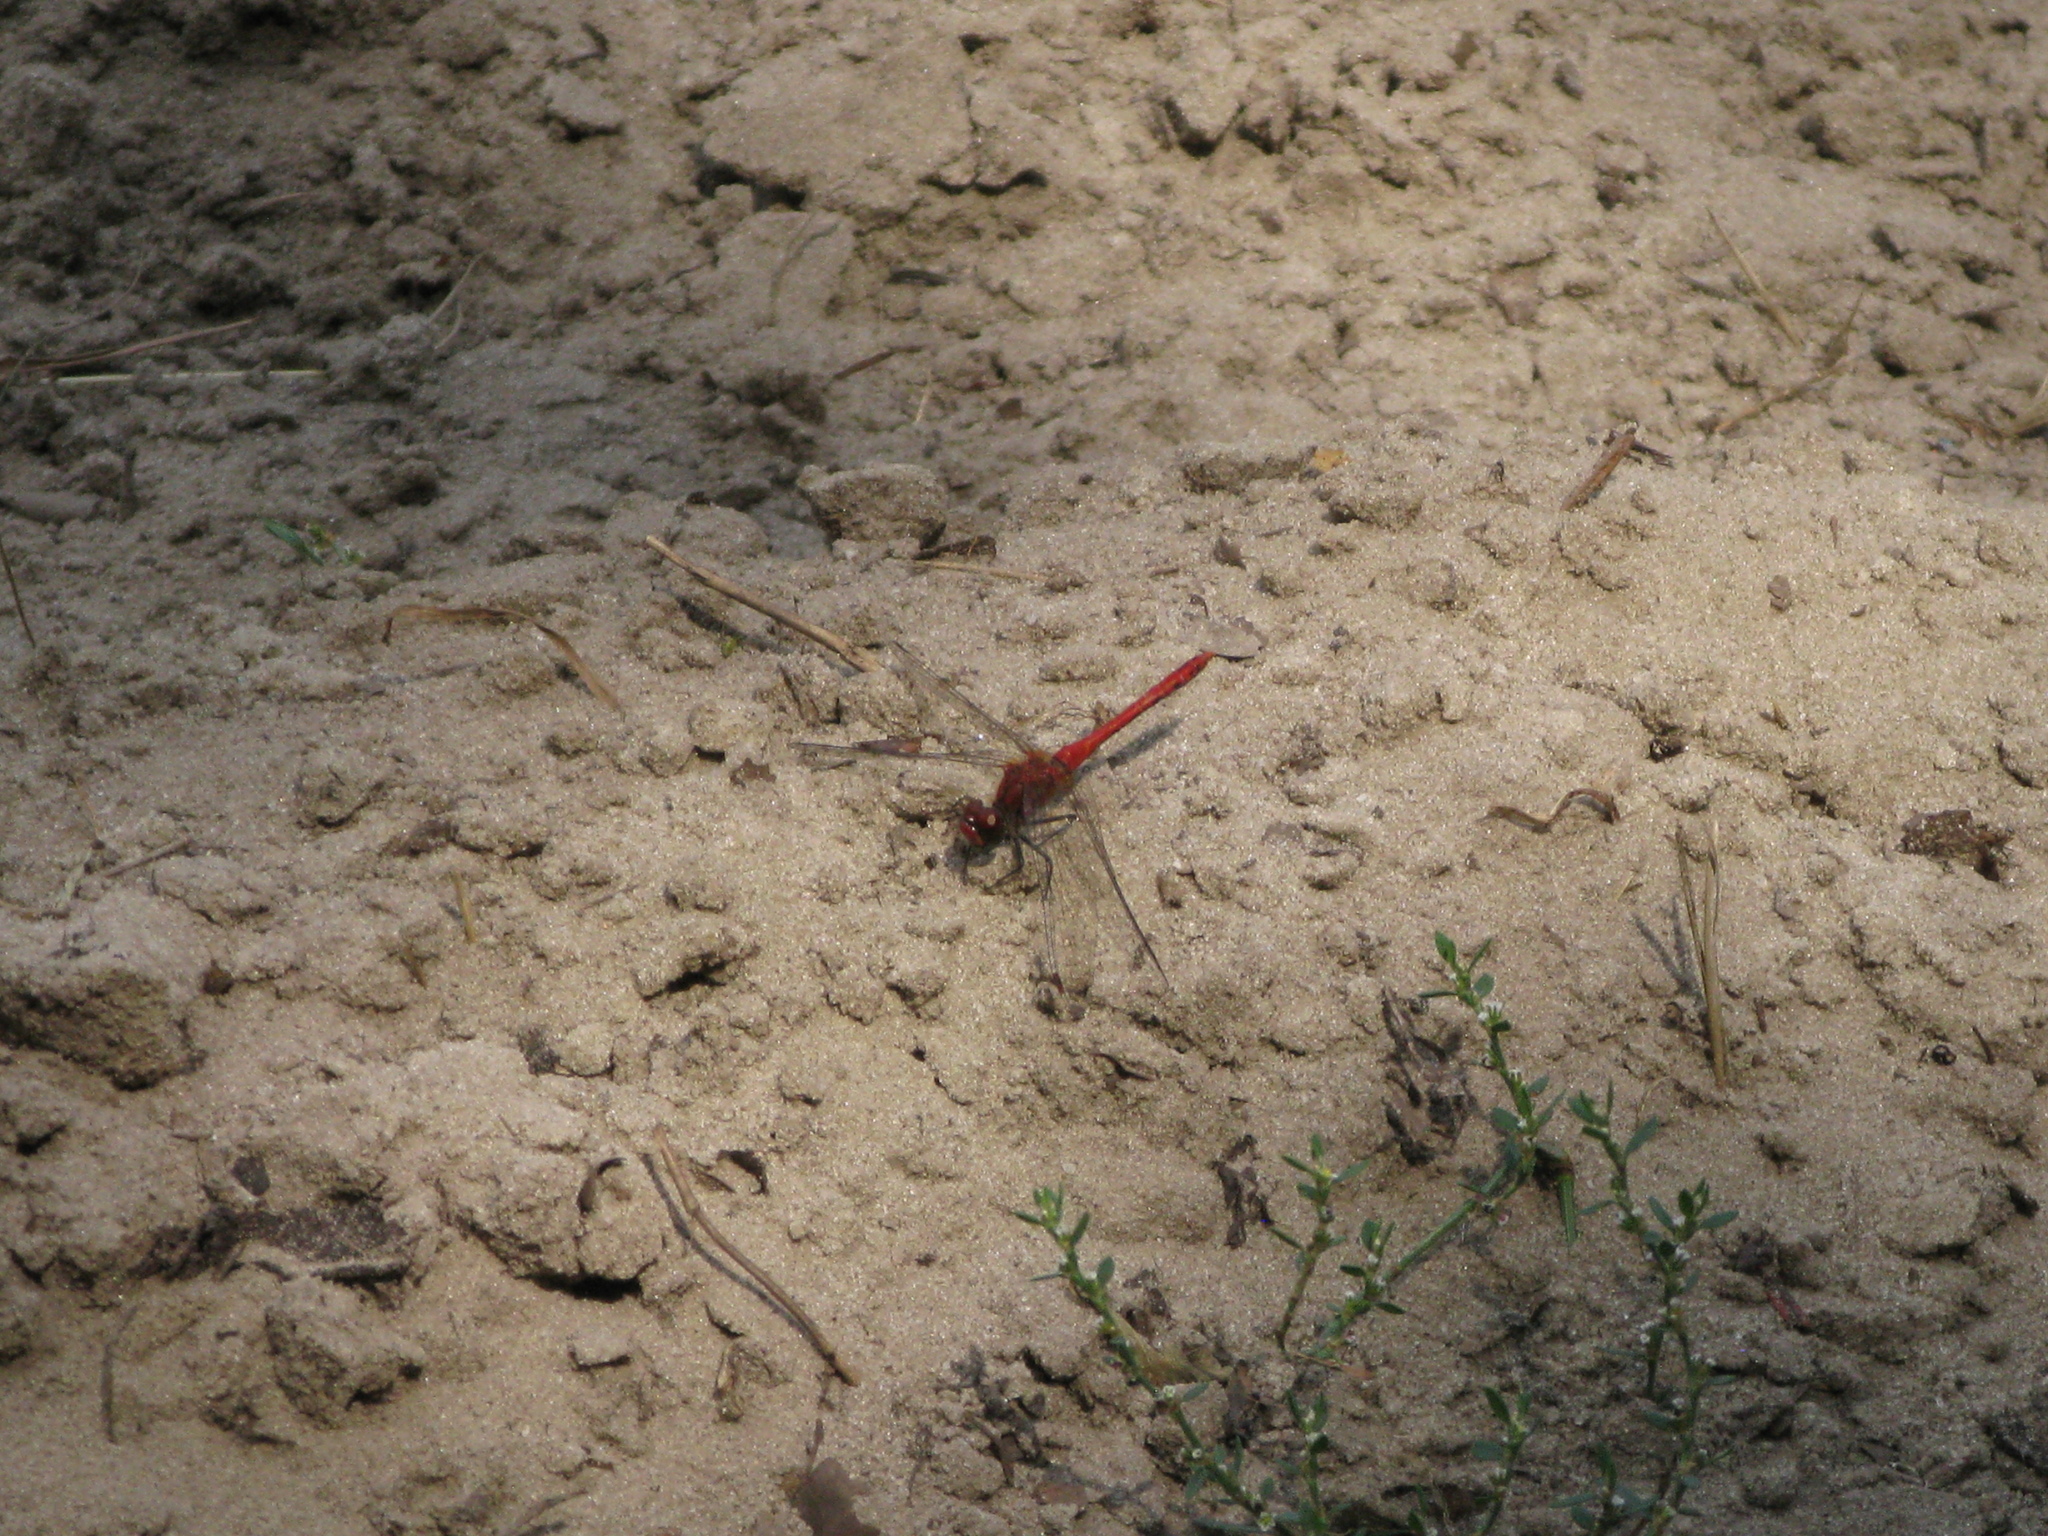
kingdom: Animalia
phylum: Arthropoda
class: Insecta
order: Odonata
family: Libellulidae
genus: Sympetrum
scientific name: Sympetrum sanguineum
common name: Ruddy darter
